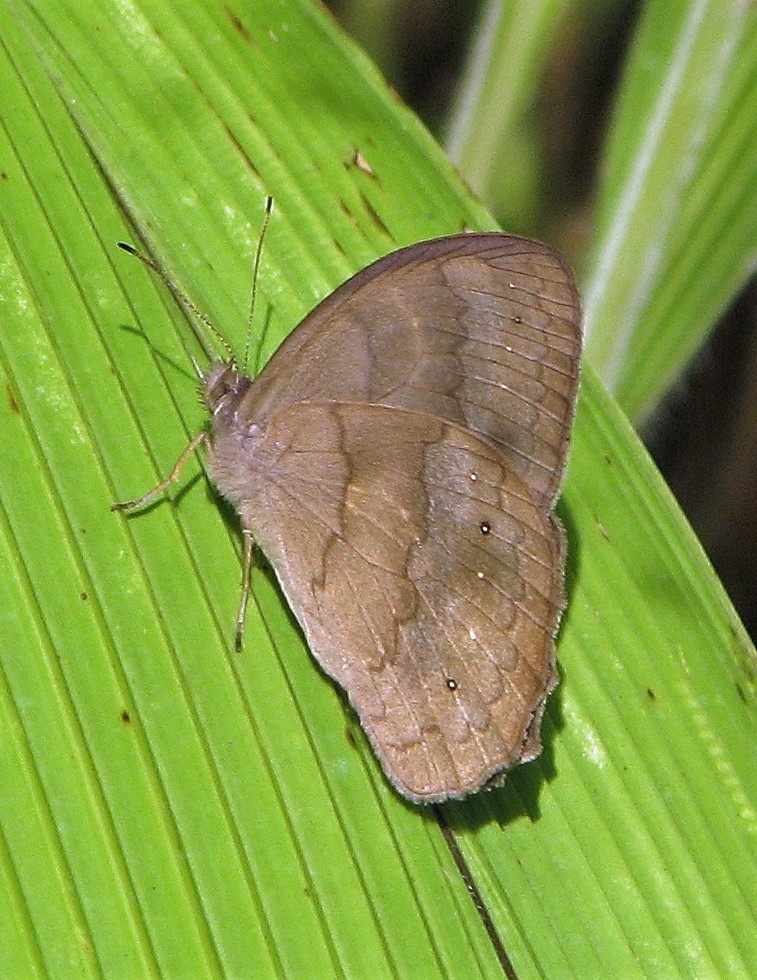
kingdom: Animalia
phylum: Arthropoda
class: Insecta
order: Lepidoptera
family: Nymphalidae
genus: Pseudodebis
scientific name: Pseudodebis euptychidia
